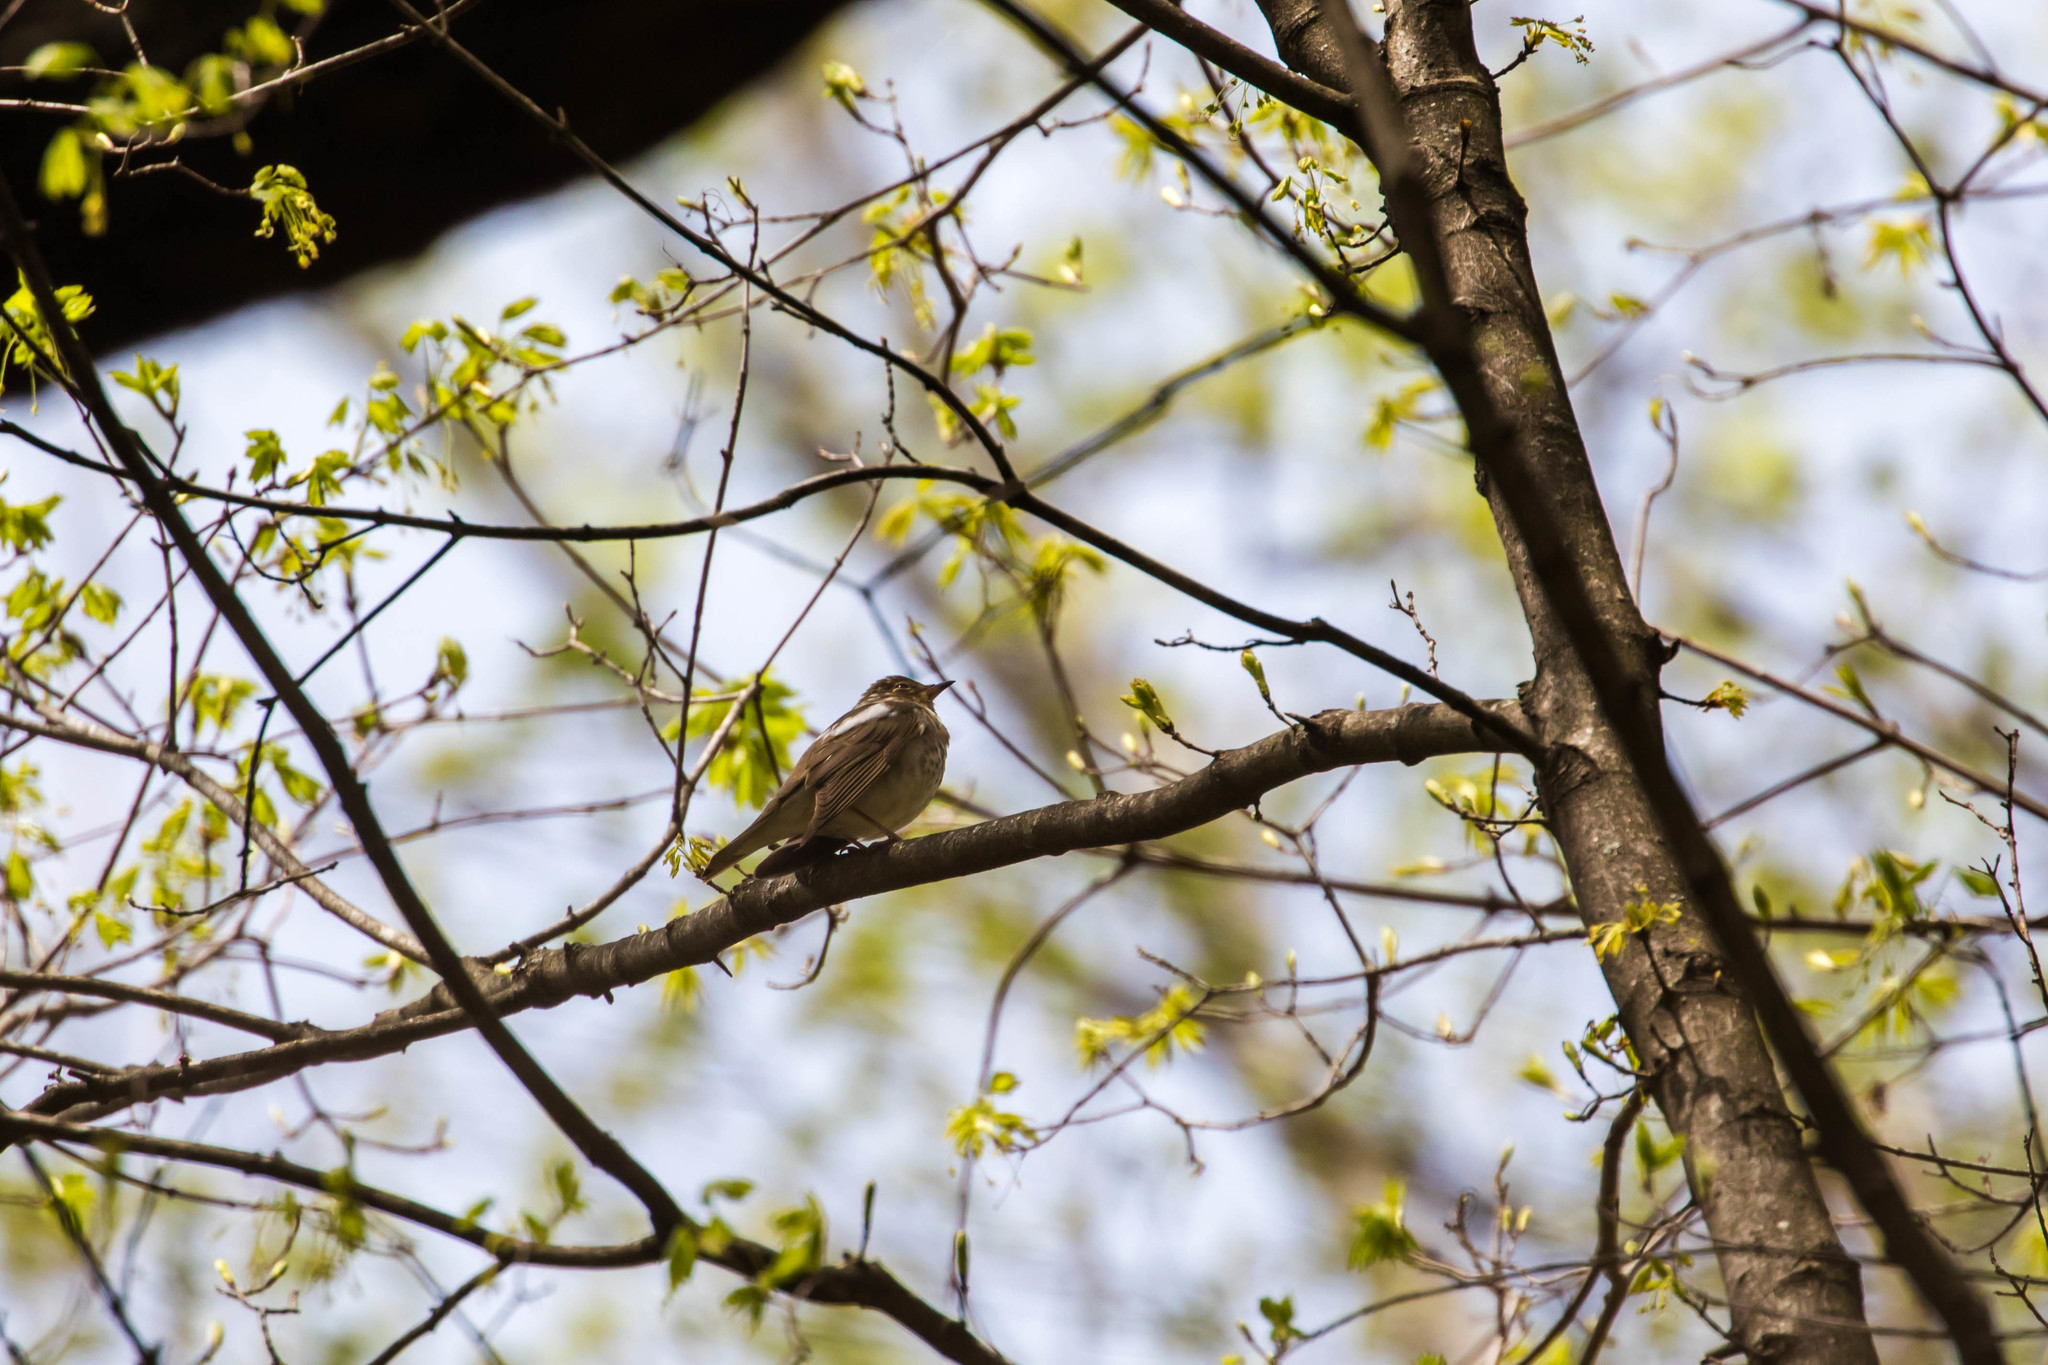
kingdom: Animalia
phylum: Chordata
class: Aves
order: Passeriformes
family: Turdidae
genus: Catharus
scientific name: Catharus ustulatus
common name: Swainson's thrush
